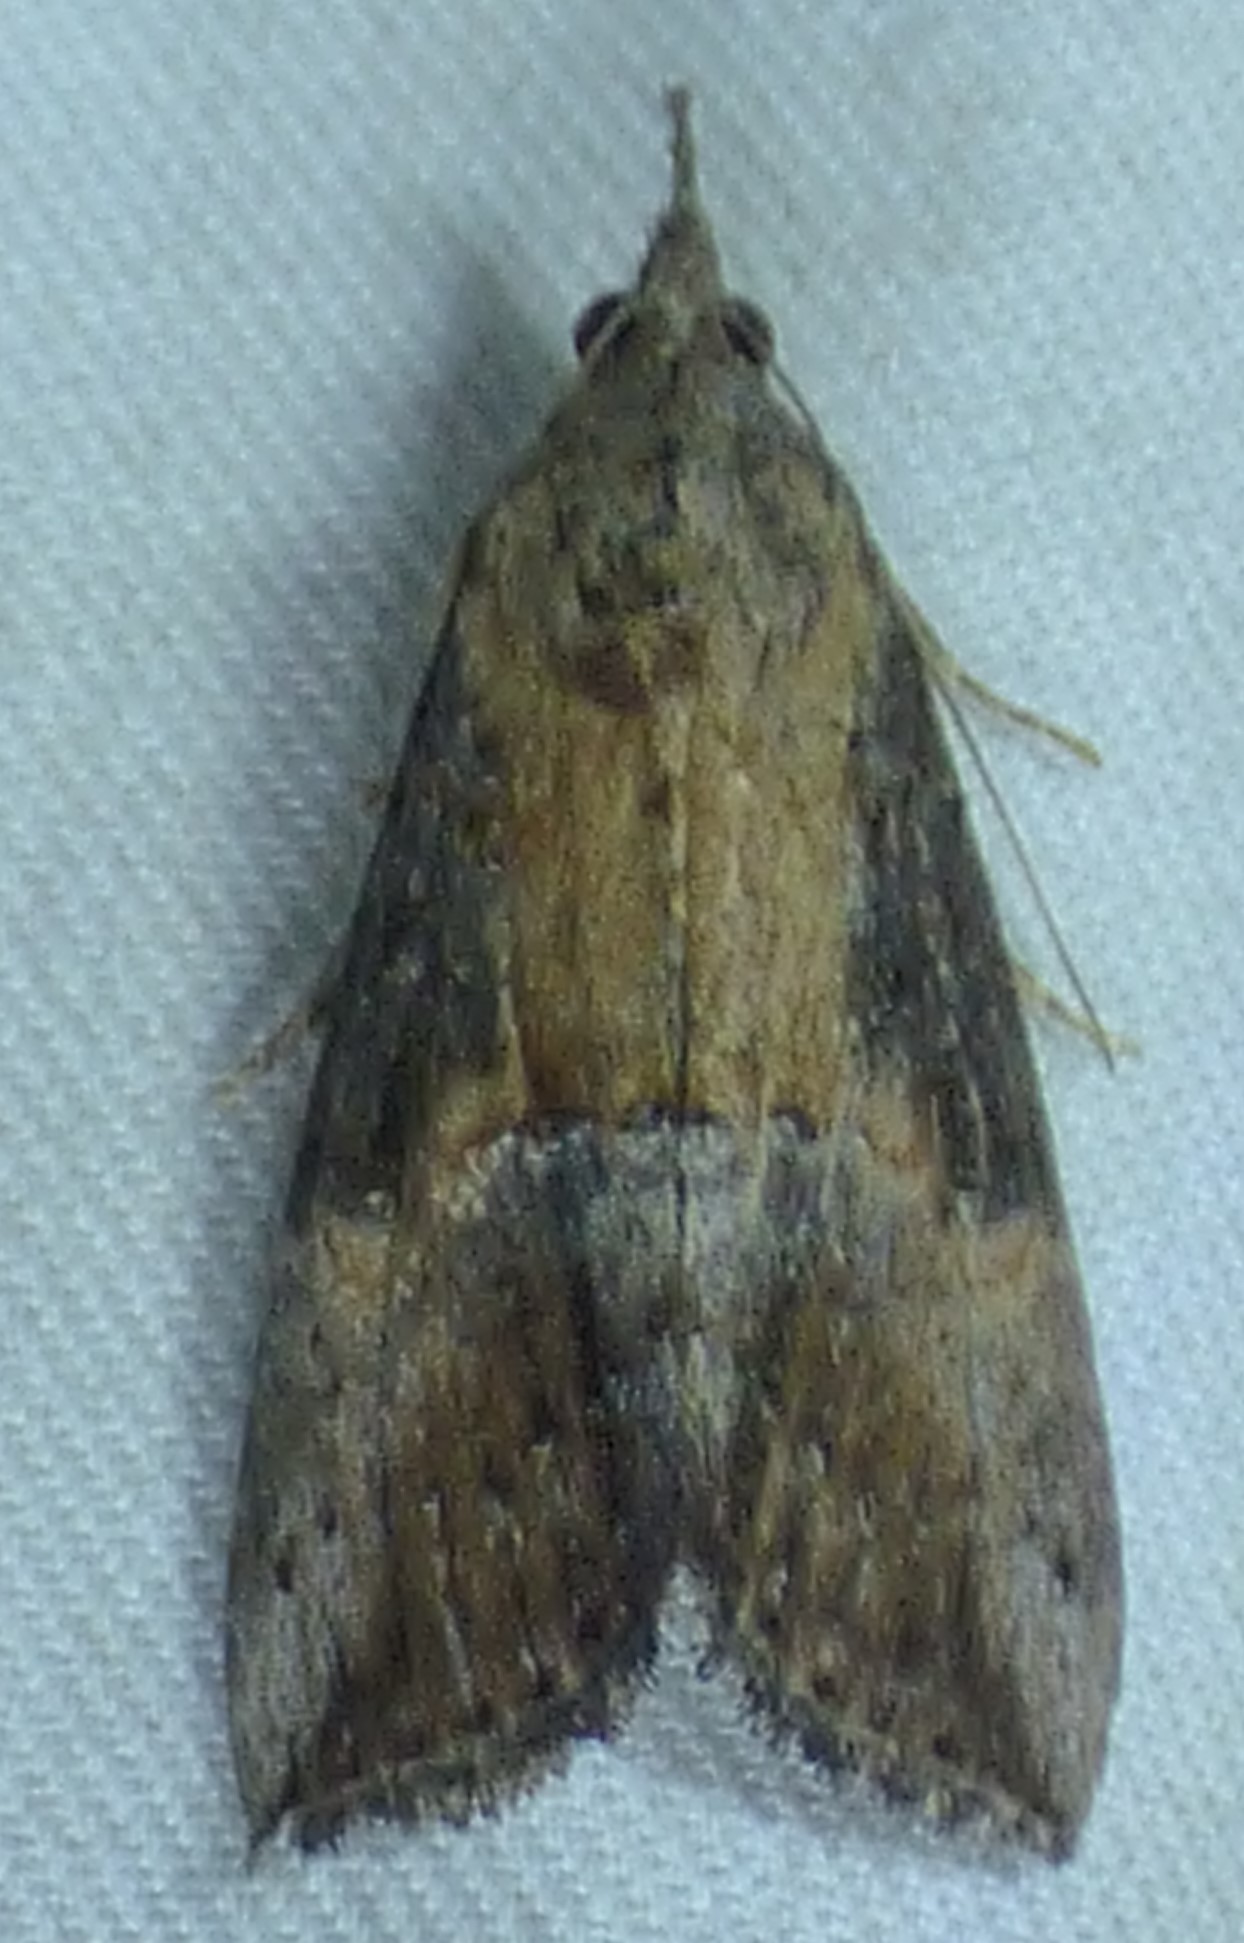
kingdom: Animalia
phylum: Arthropoda
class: Insecta
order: Lepidoptera
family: Erebidae
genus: Hypena
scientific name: Hypena scabra
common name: Green cloverworm
